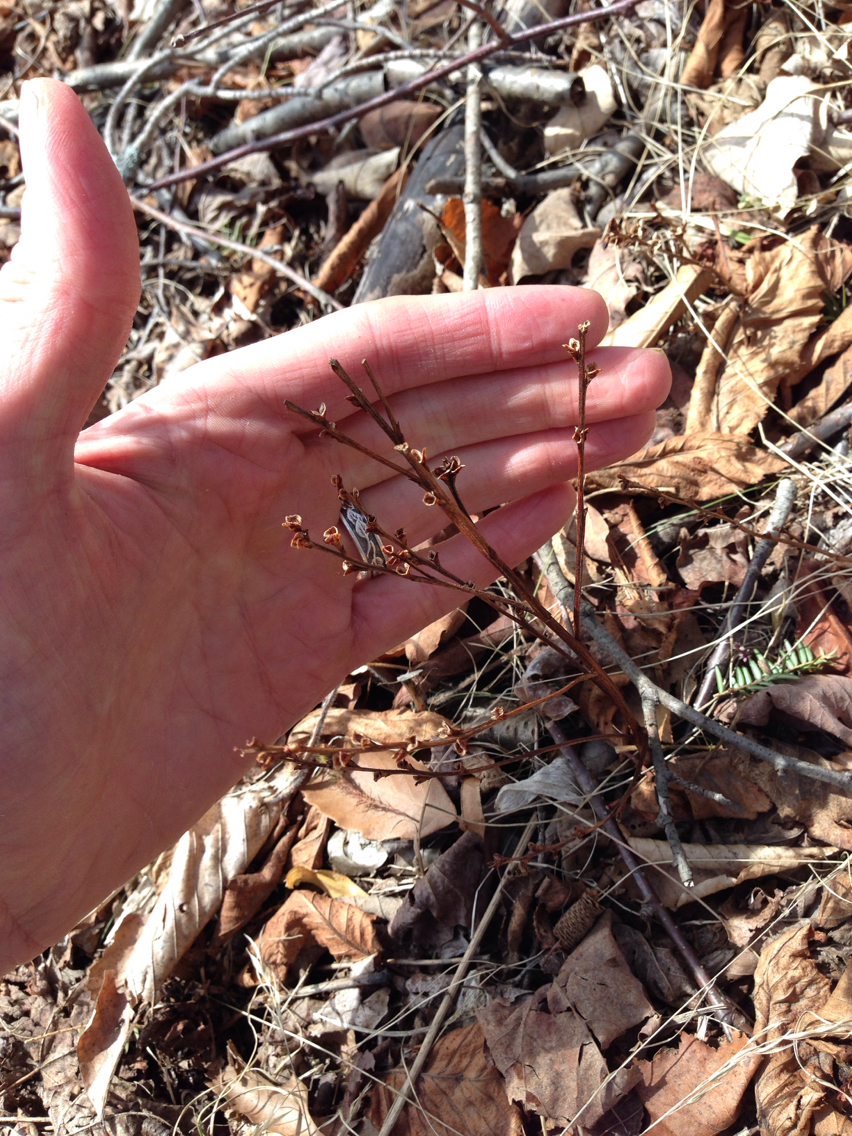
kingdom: Plantae
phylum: Tracheophyta
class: Magnoliopsida
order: Lamiales
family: Orobanchaceae
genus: Epifagus
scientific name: Epifagus virginiana
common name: Beechdrops
